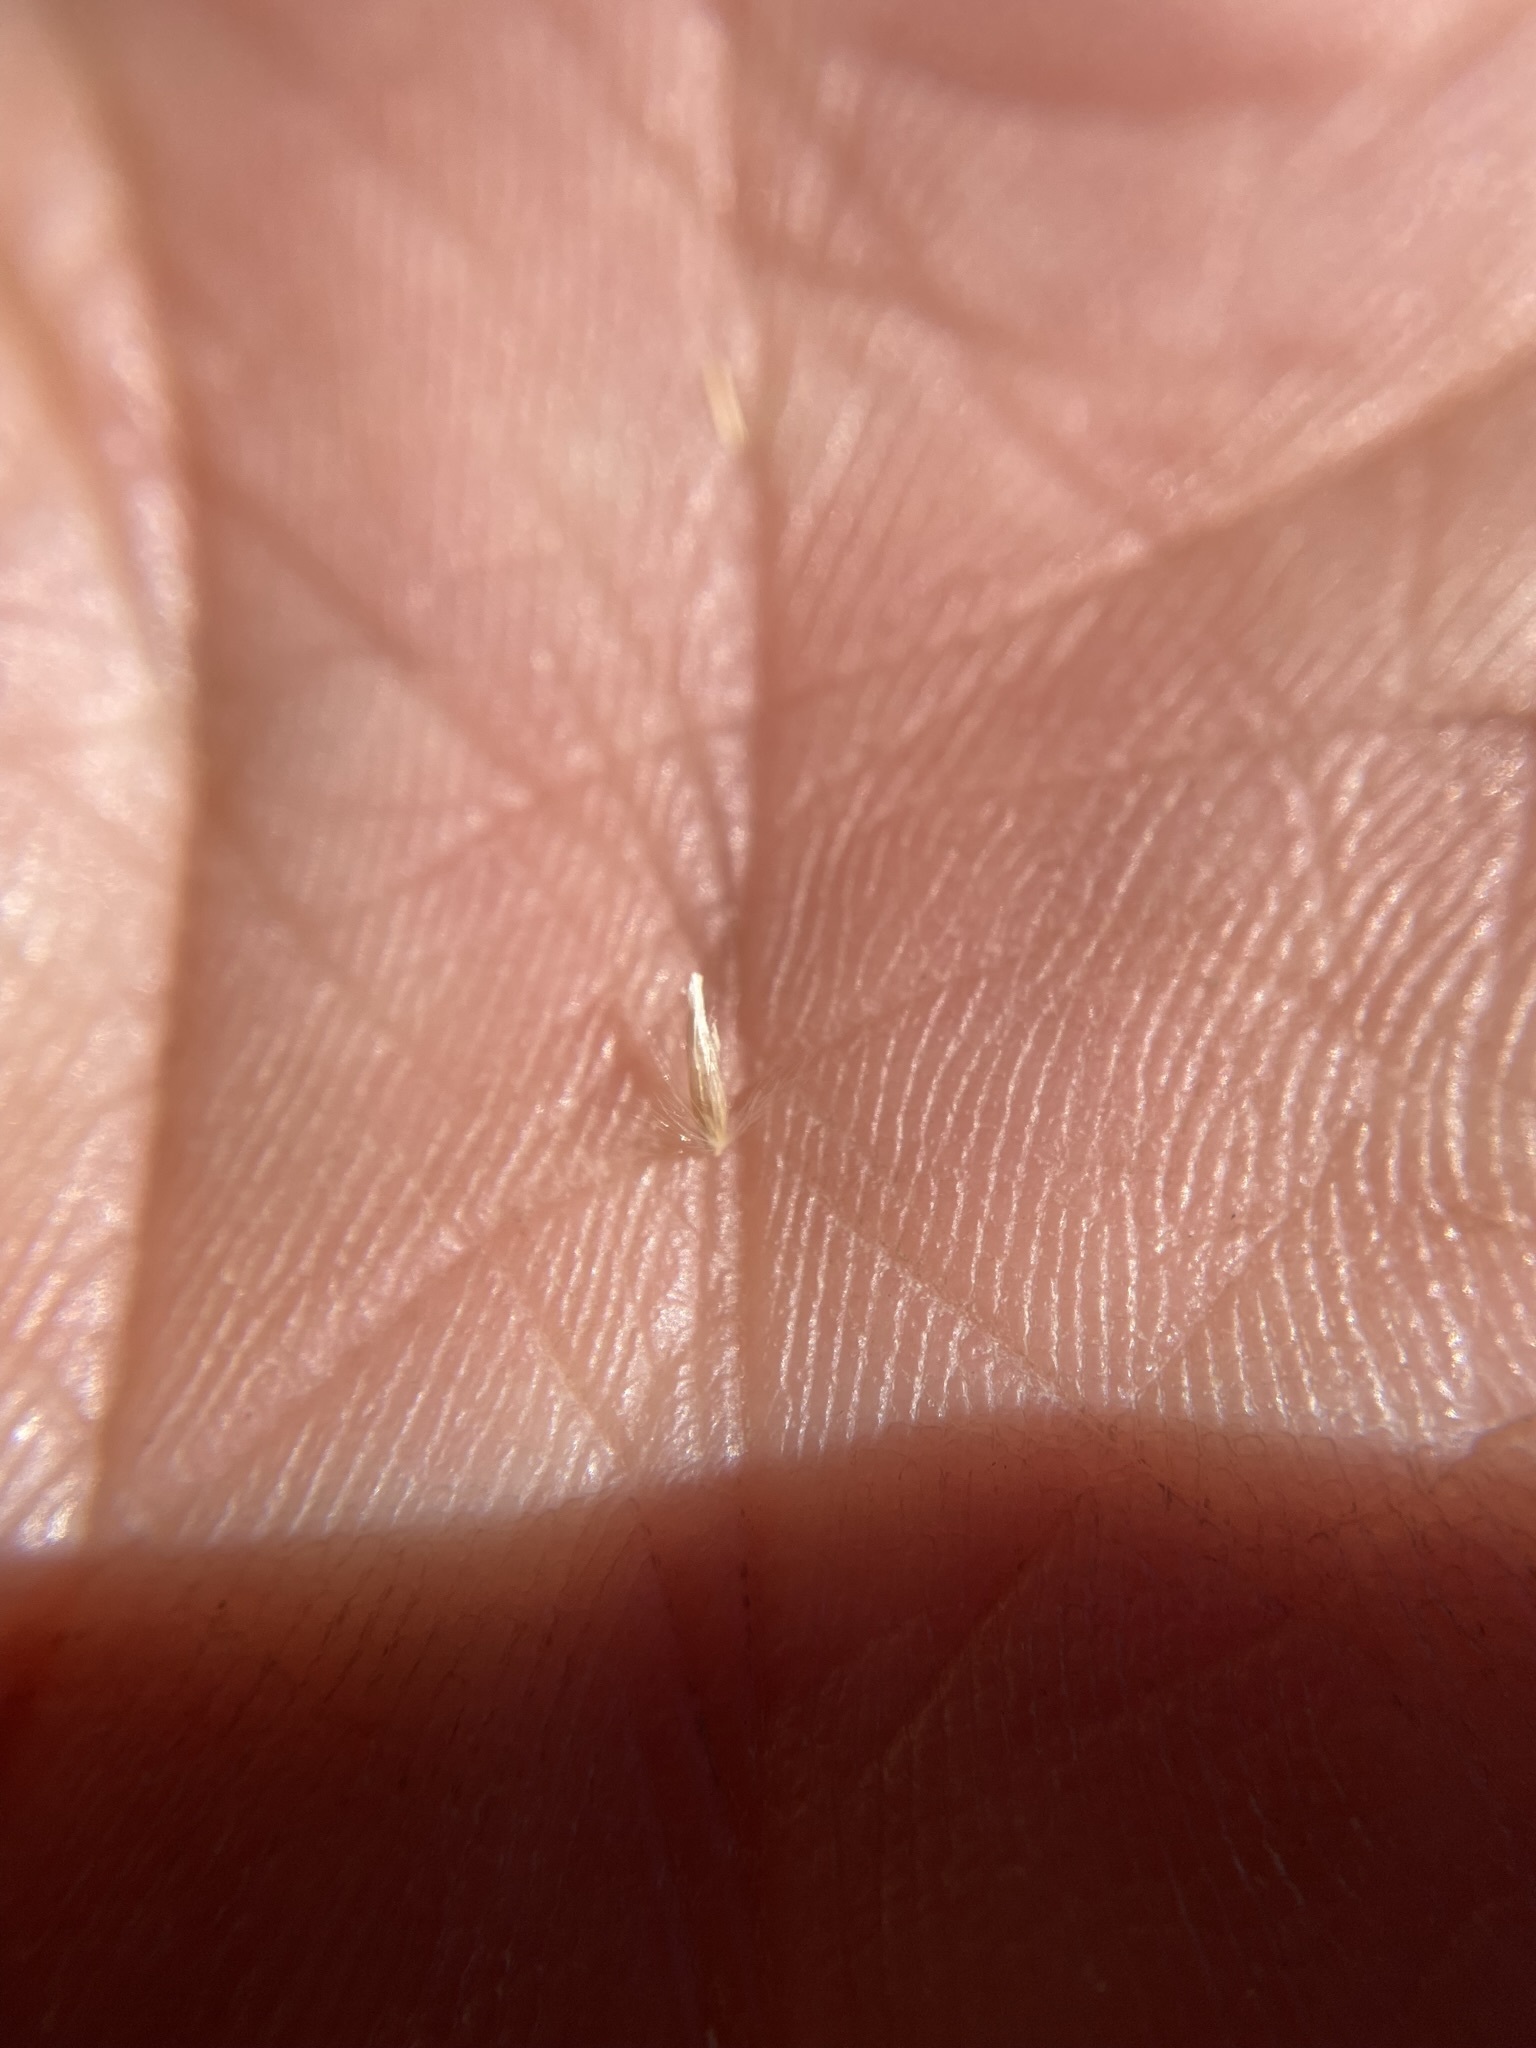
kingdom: Plantae
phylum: Tracheophyta
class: Liliopsida
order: Poales
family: Poaceae
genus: Calamagrostis
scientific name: Calamagrostis canadensis
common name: Canada bluejoint
